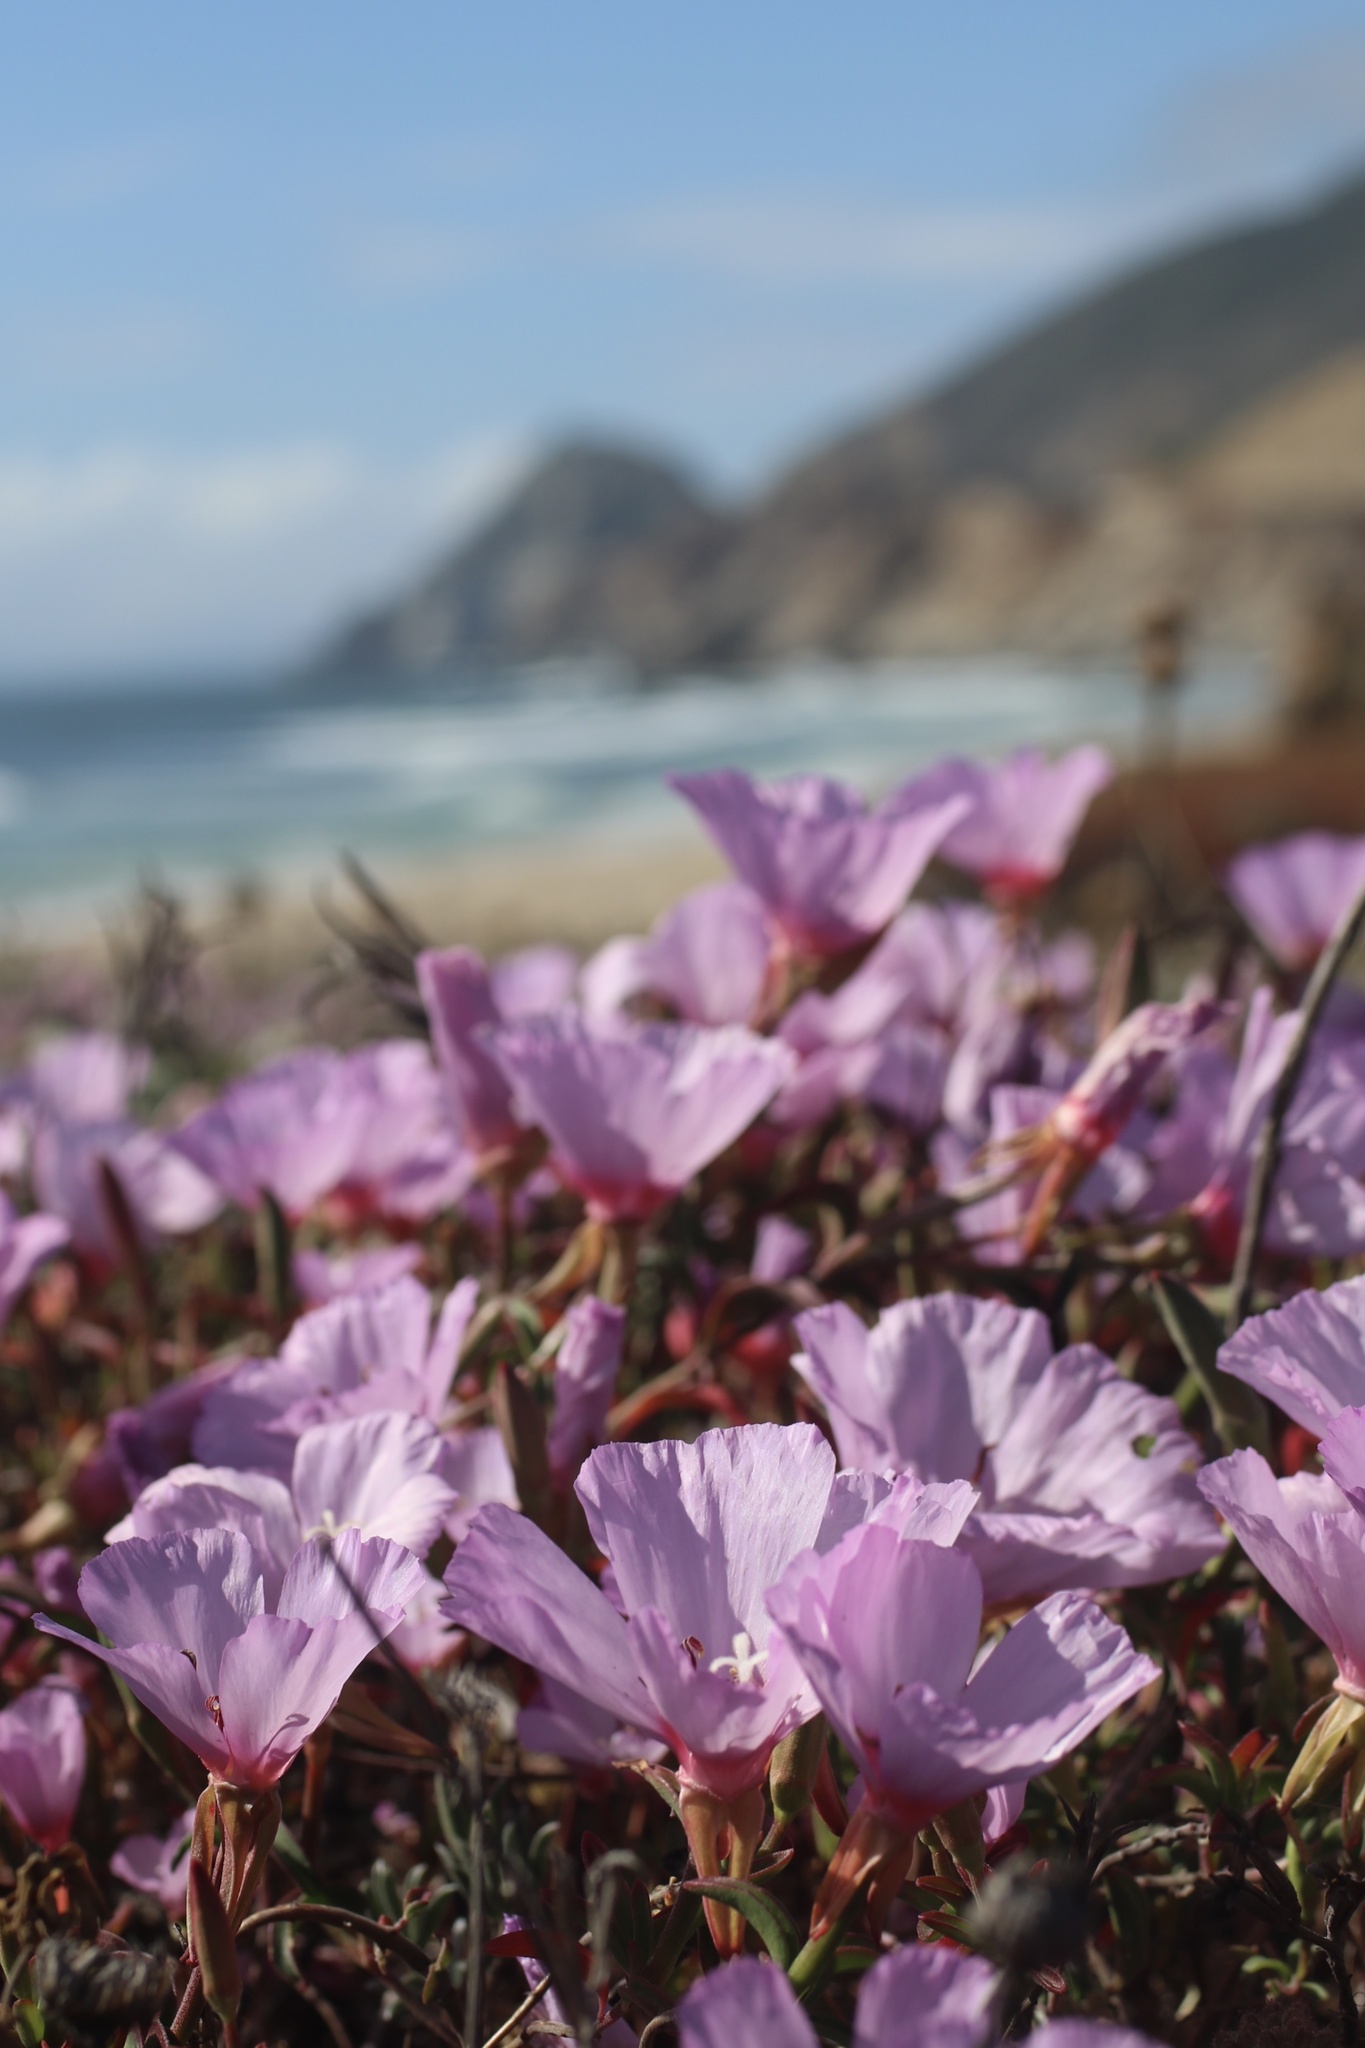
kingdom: Plantae
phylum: Tracheophyta
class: Magnoliopsida
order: Myrtales
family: Onagraceae
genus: Clarkia
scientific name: Clarkia rubicunda
